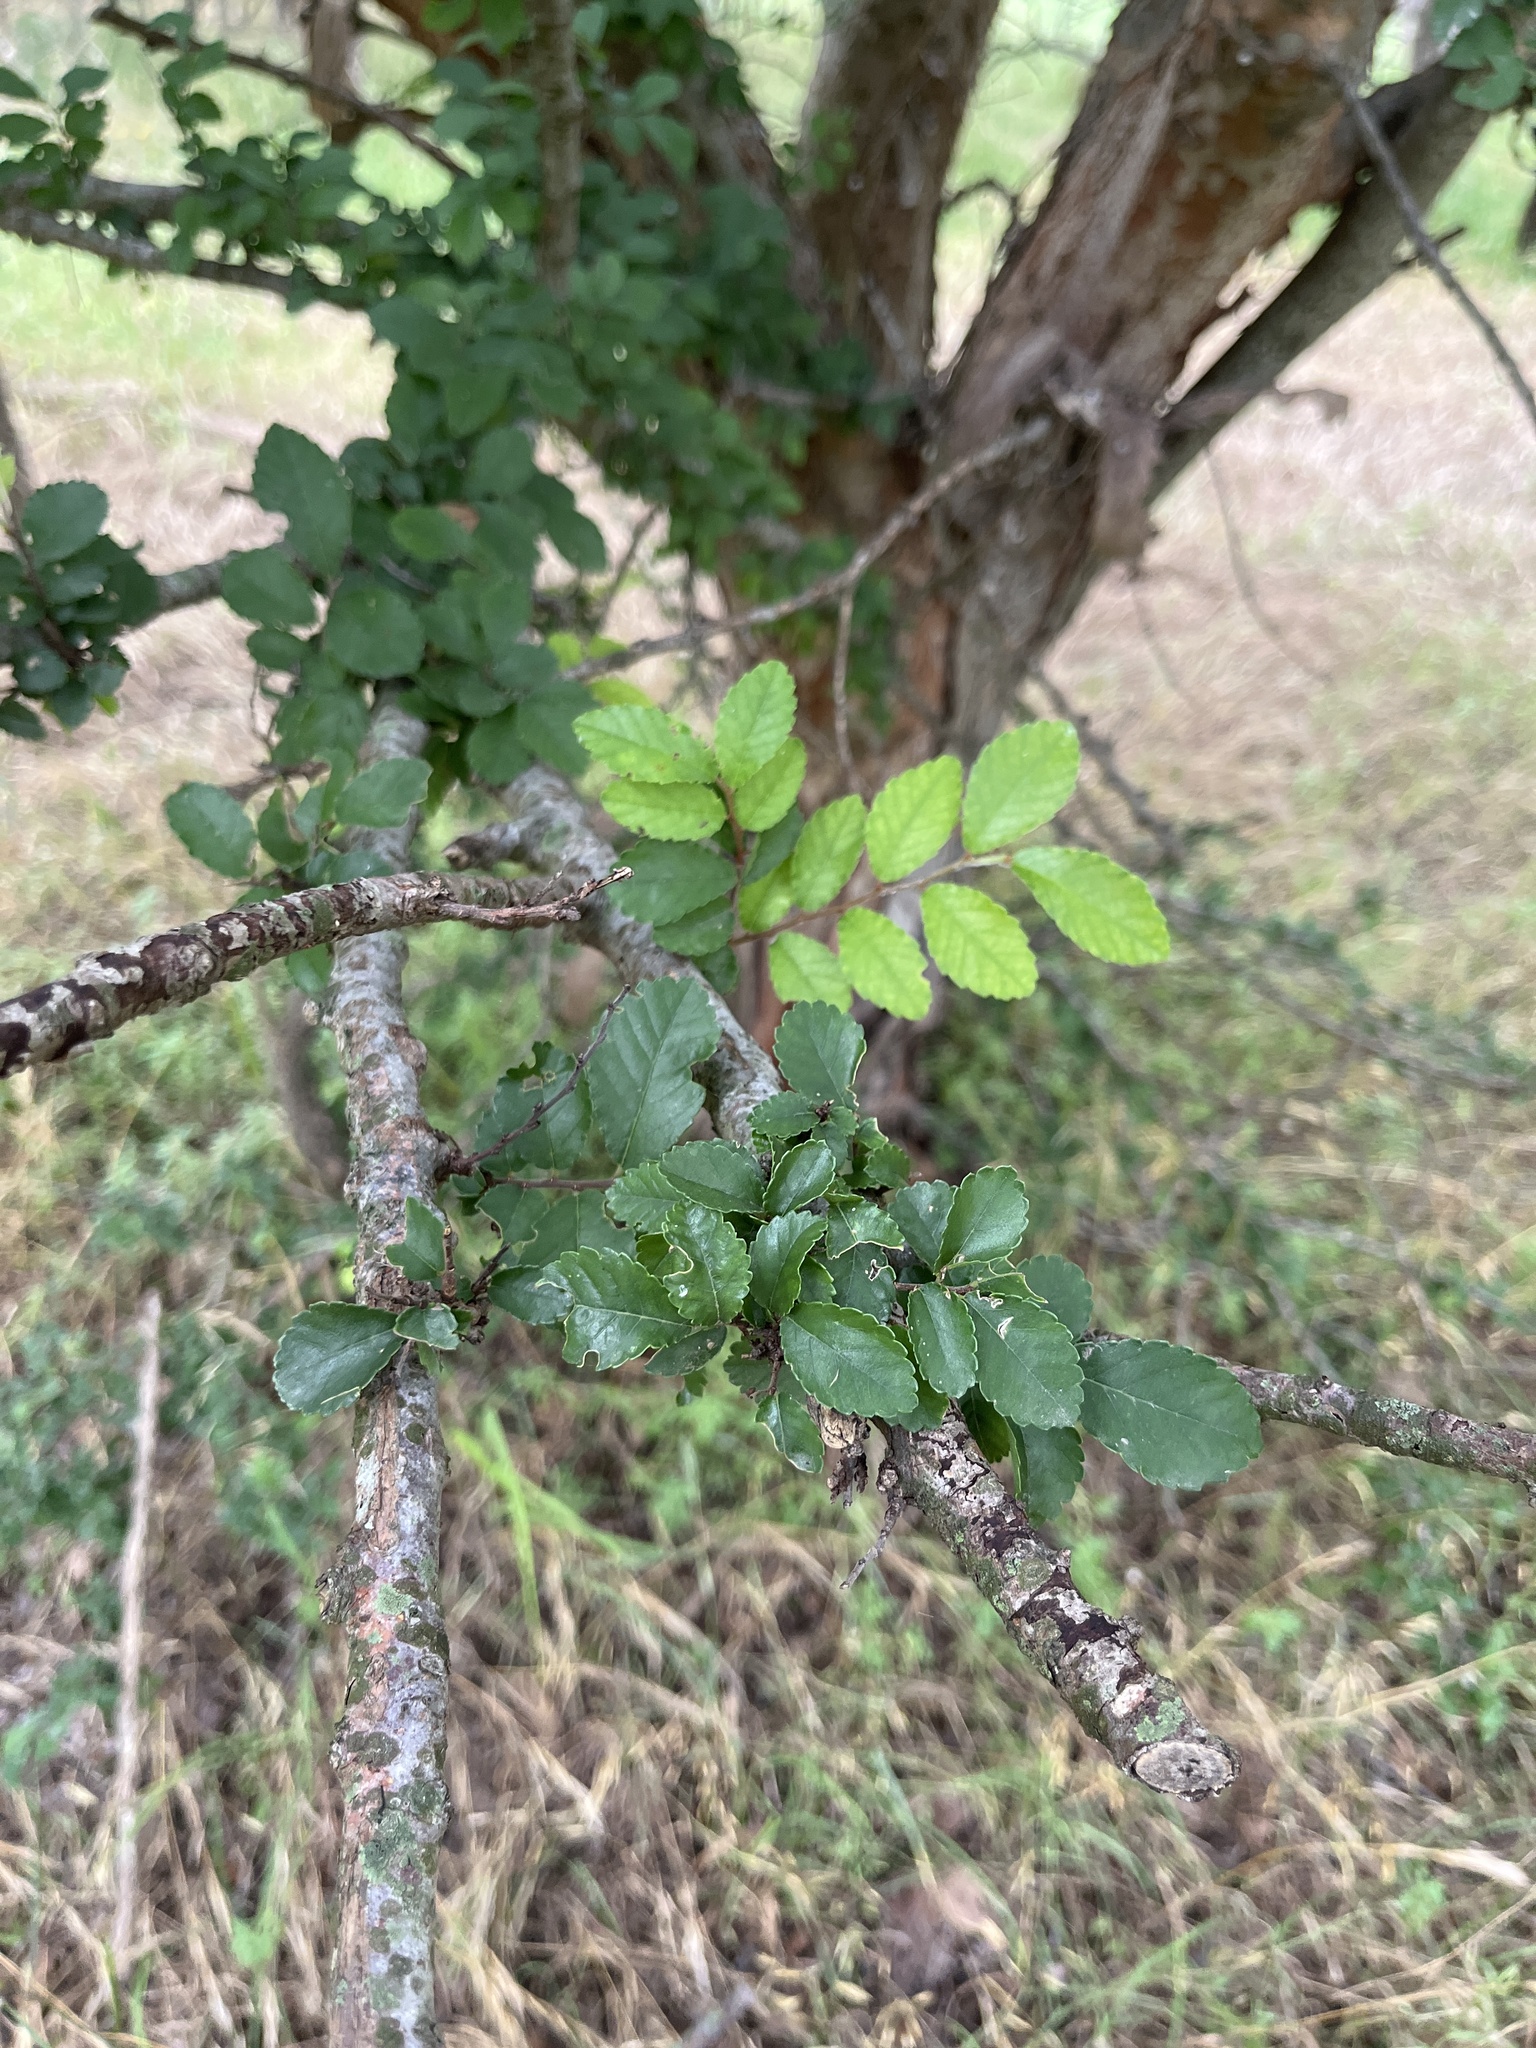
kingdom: Plantae
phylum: Tracheophyta
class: Magnoliopsida
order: Rosales
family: Ulmaceae
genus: Ulmus
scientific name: Ulmus parvifolia
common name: Chinese elm
